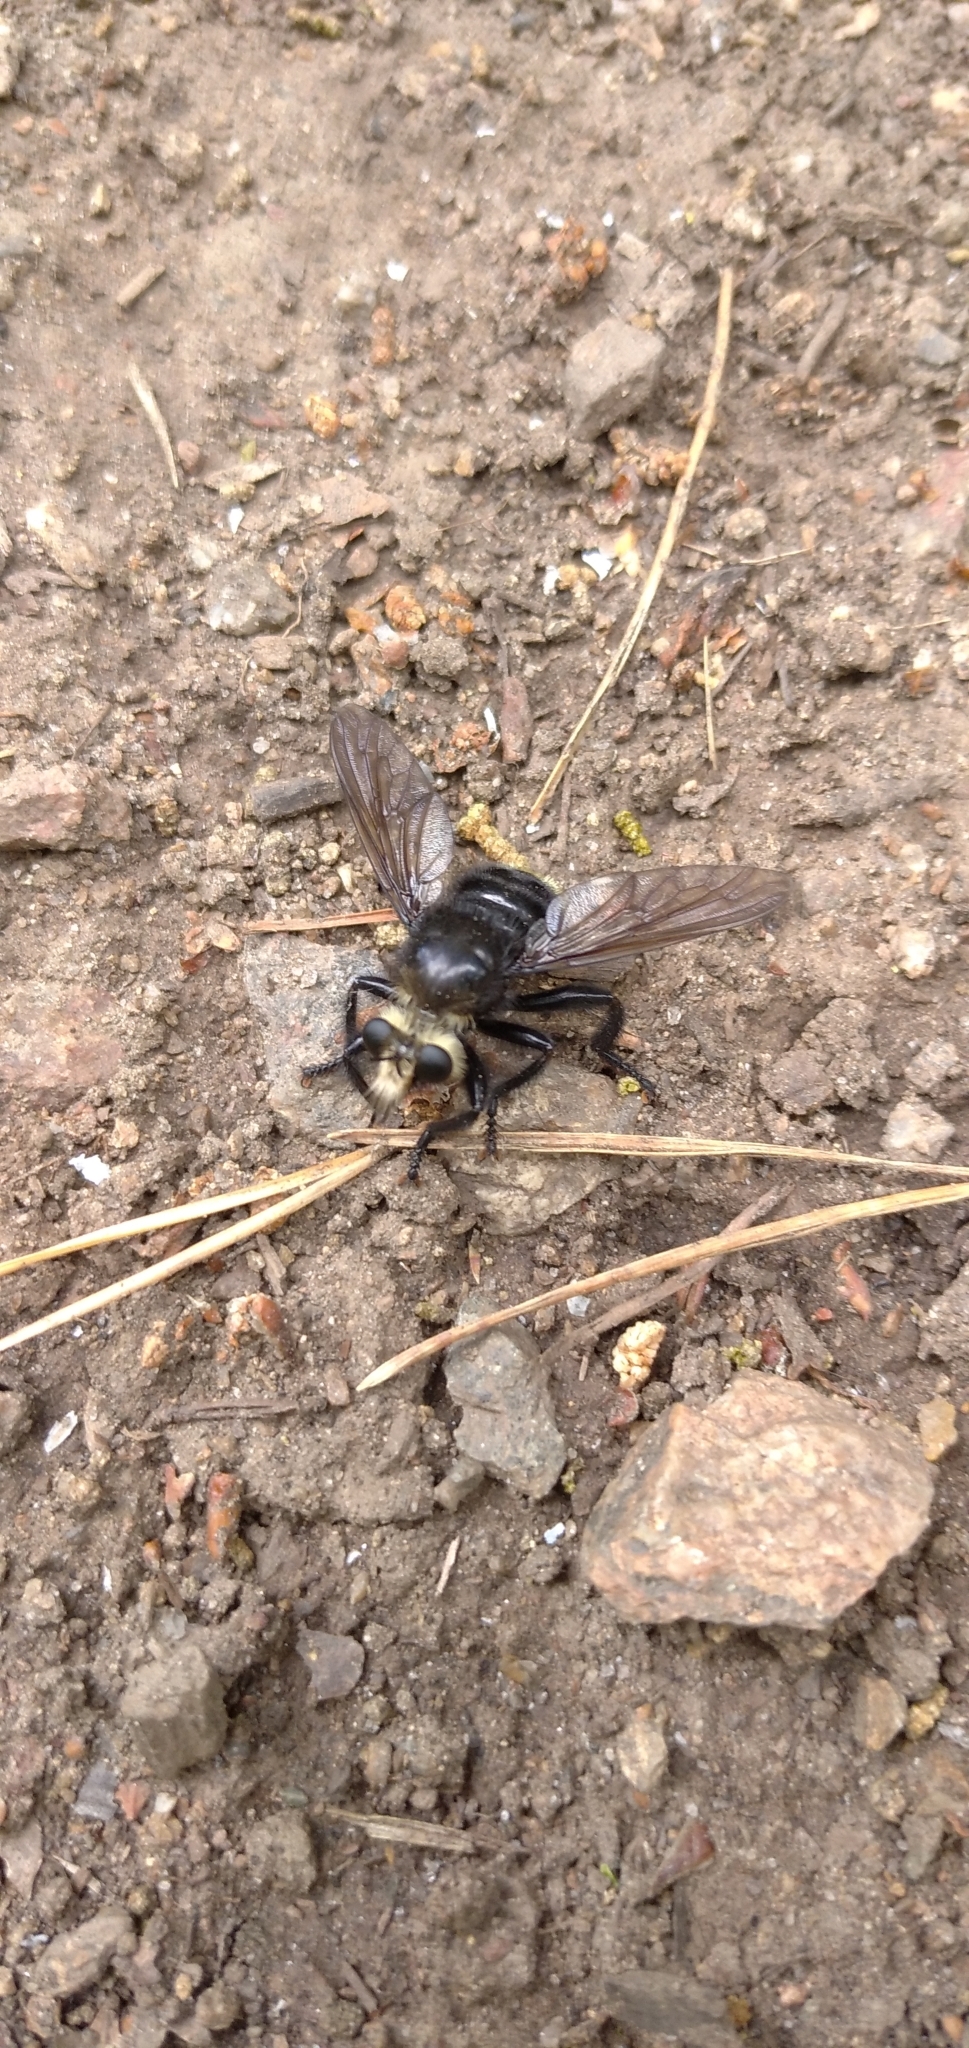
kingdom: Animalia
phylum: Arthropoda
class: Insecta
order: Diptera
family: Asilidae
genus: Laphria
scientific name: Laphria gibbosa
